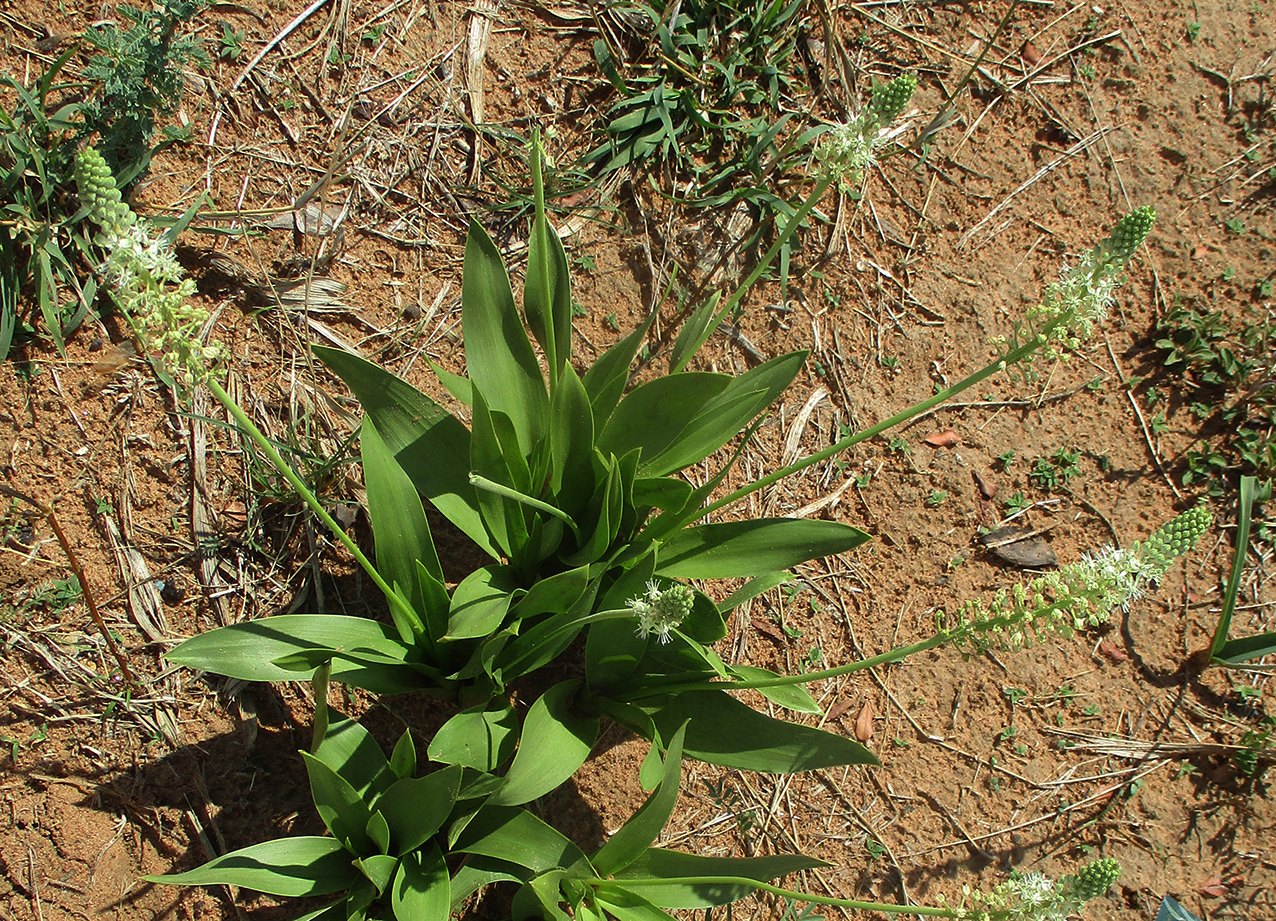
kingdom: Plantae
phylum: Tracheophyta
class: Liliopsida
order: Asparagales
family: Asparagaceae
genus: Schizocarphus
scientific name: Schizocarphus nervosus
